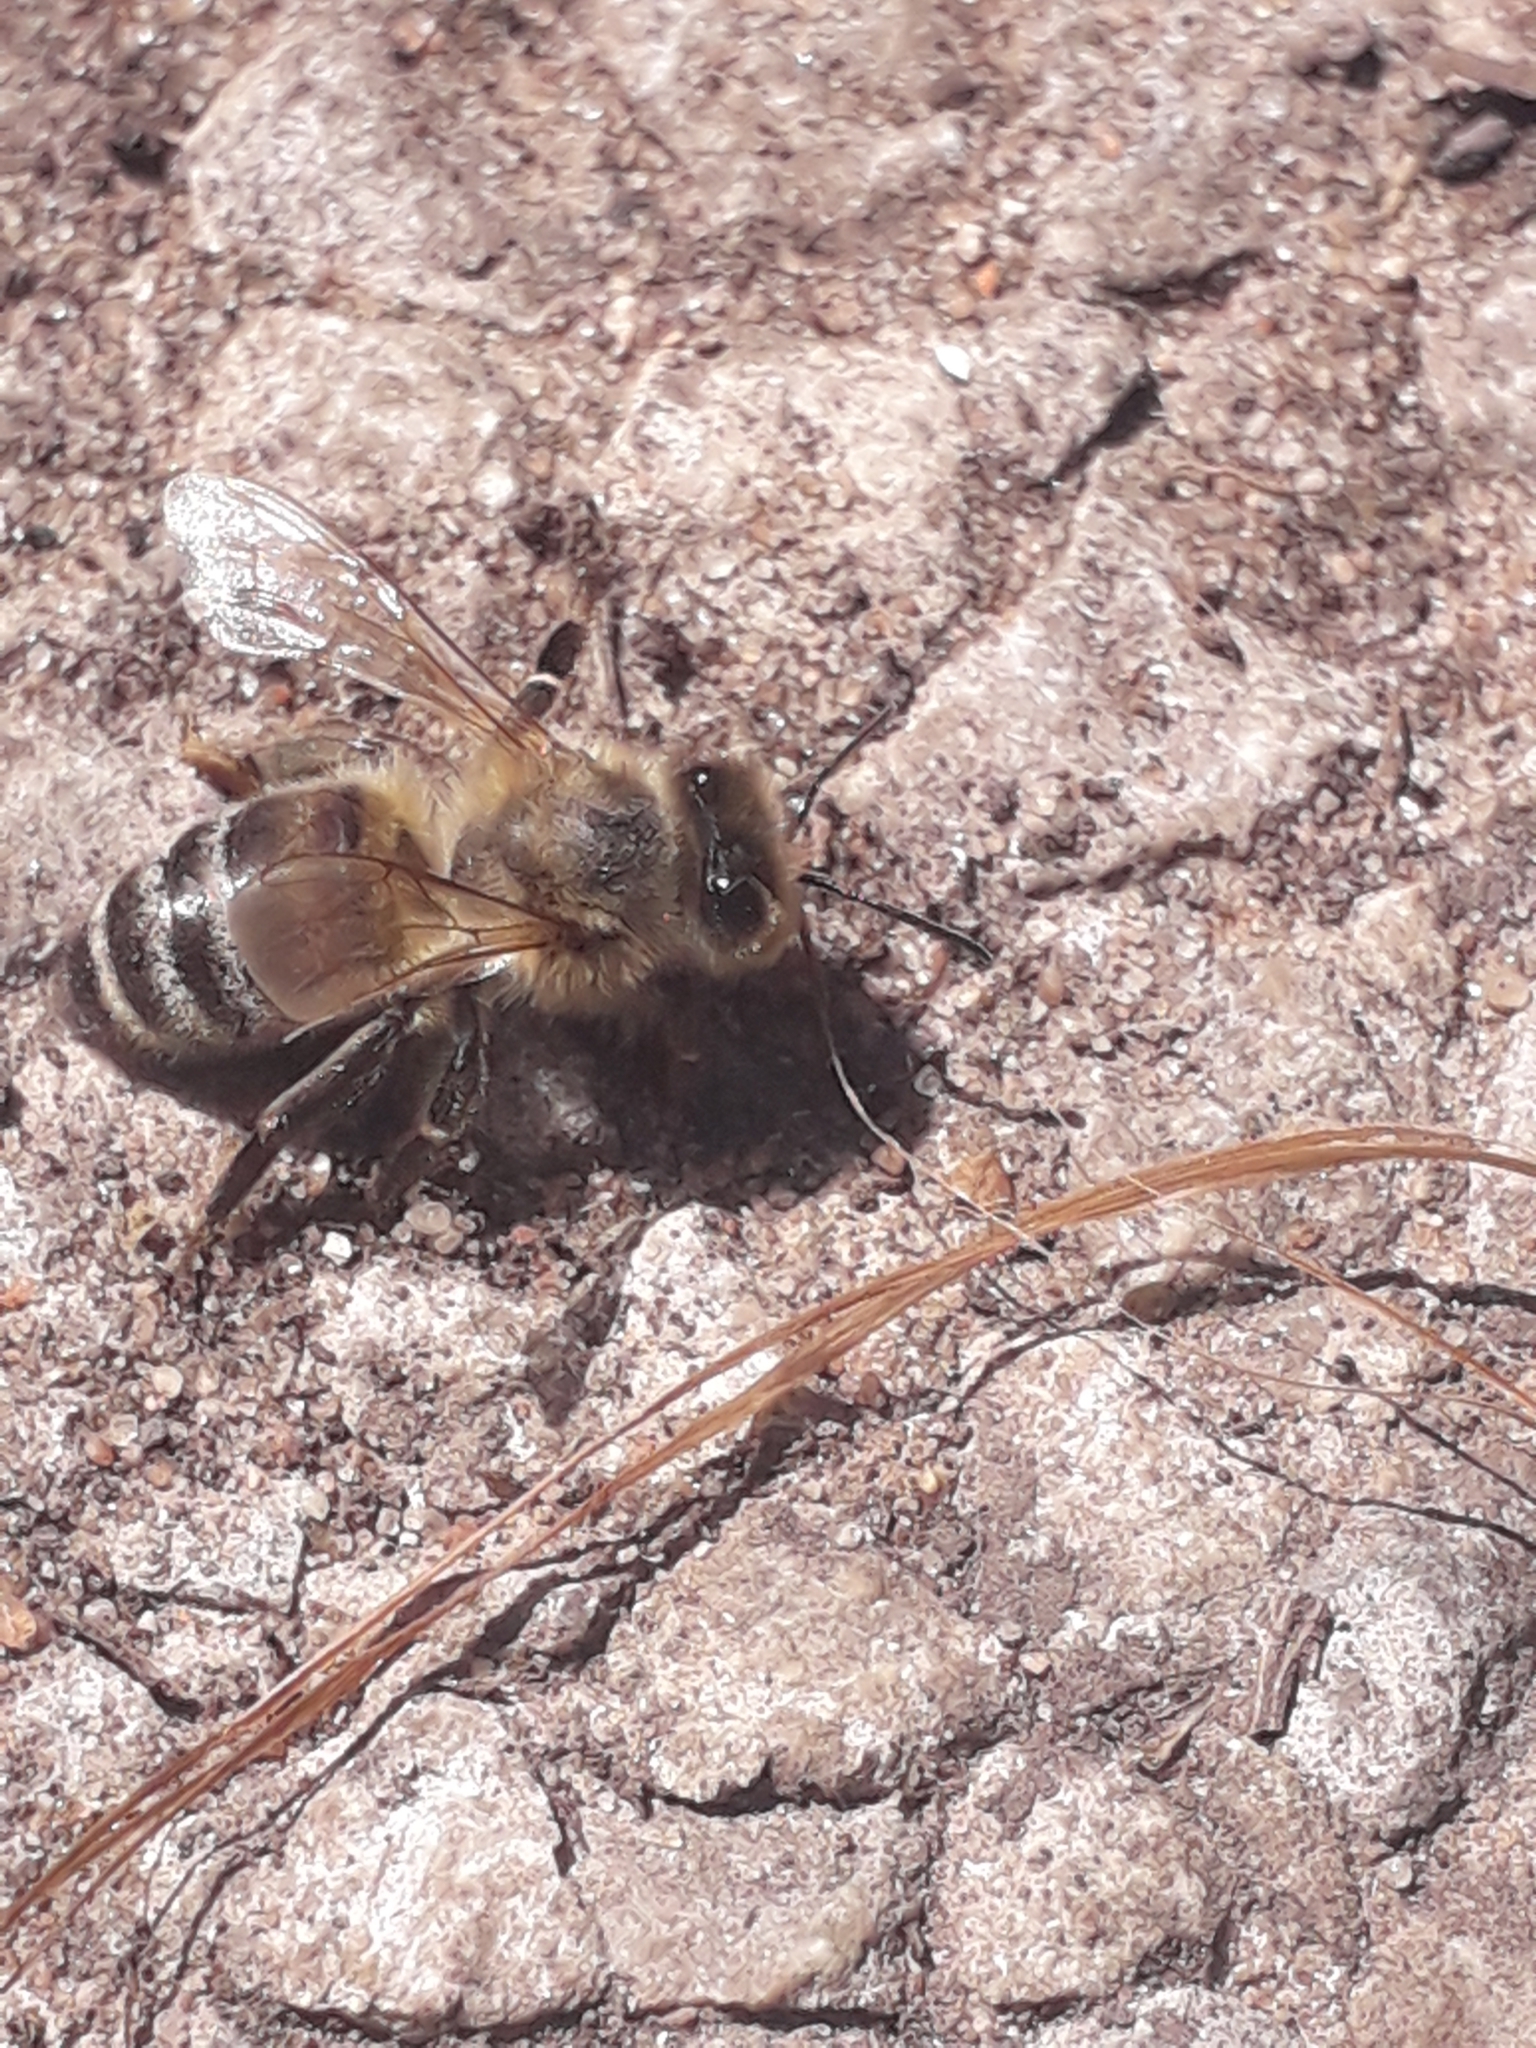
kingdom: Animalia
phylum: Arthropoda
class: Insecta
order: Hymenoptera
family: Apidae
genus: Apis
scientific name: Apis mellifera
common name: Honey bee
